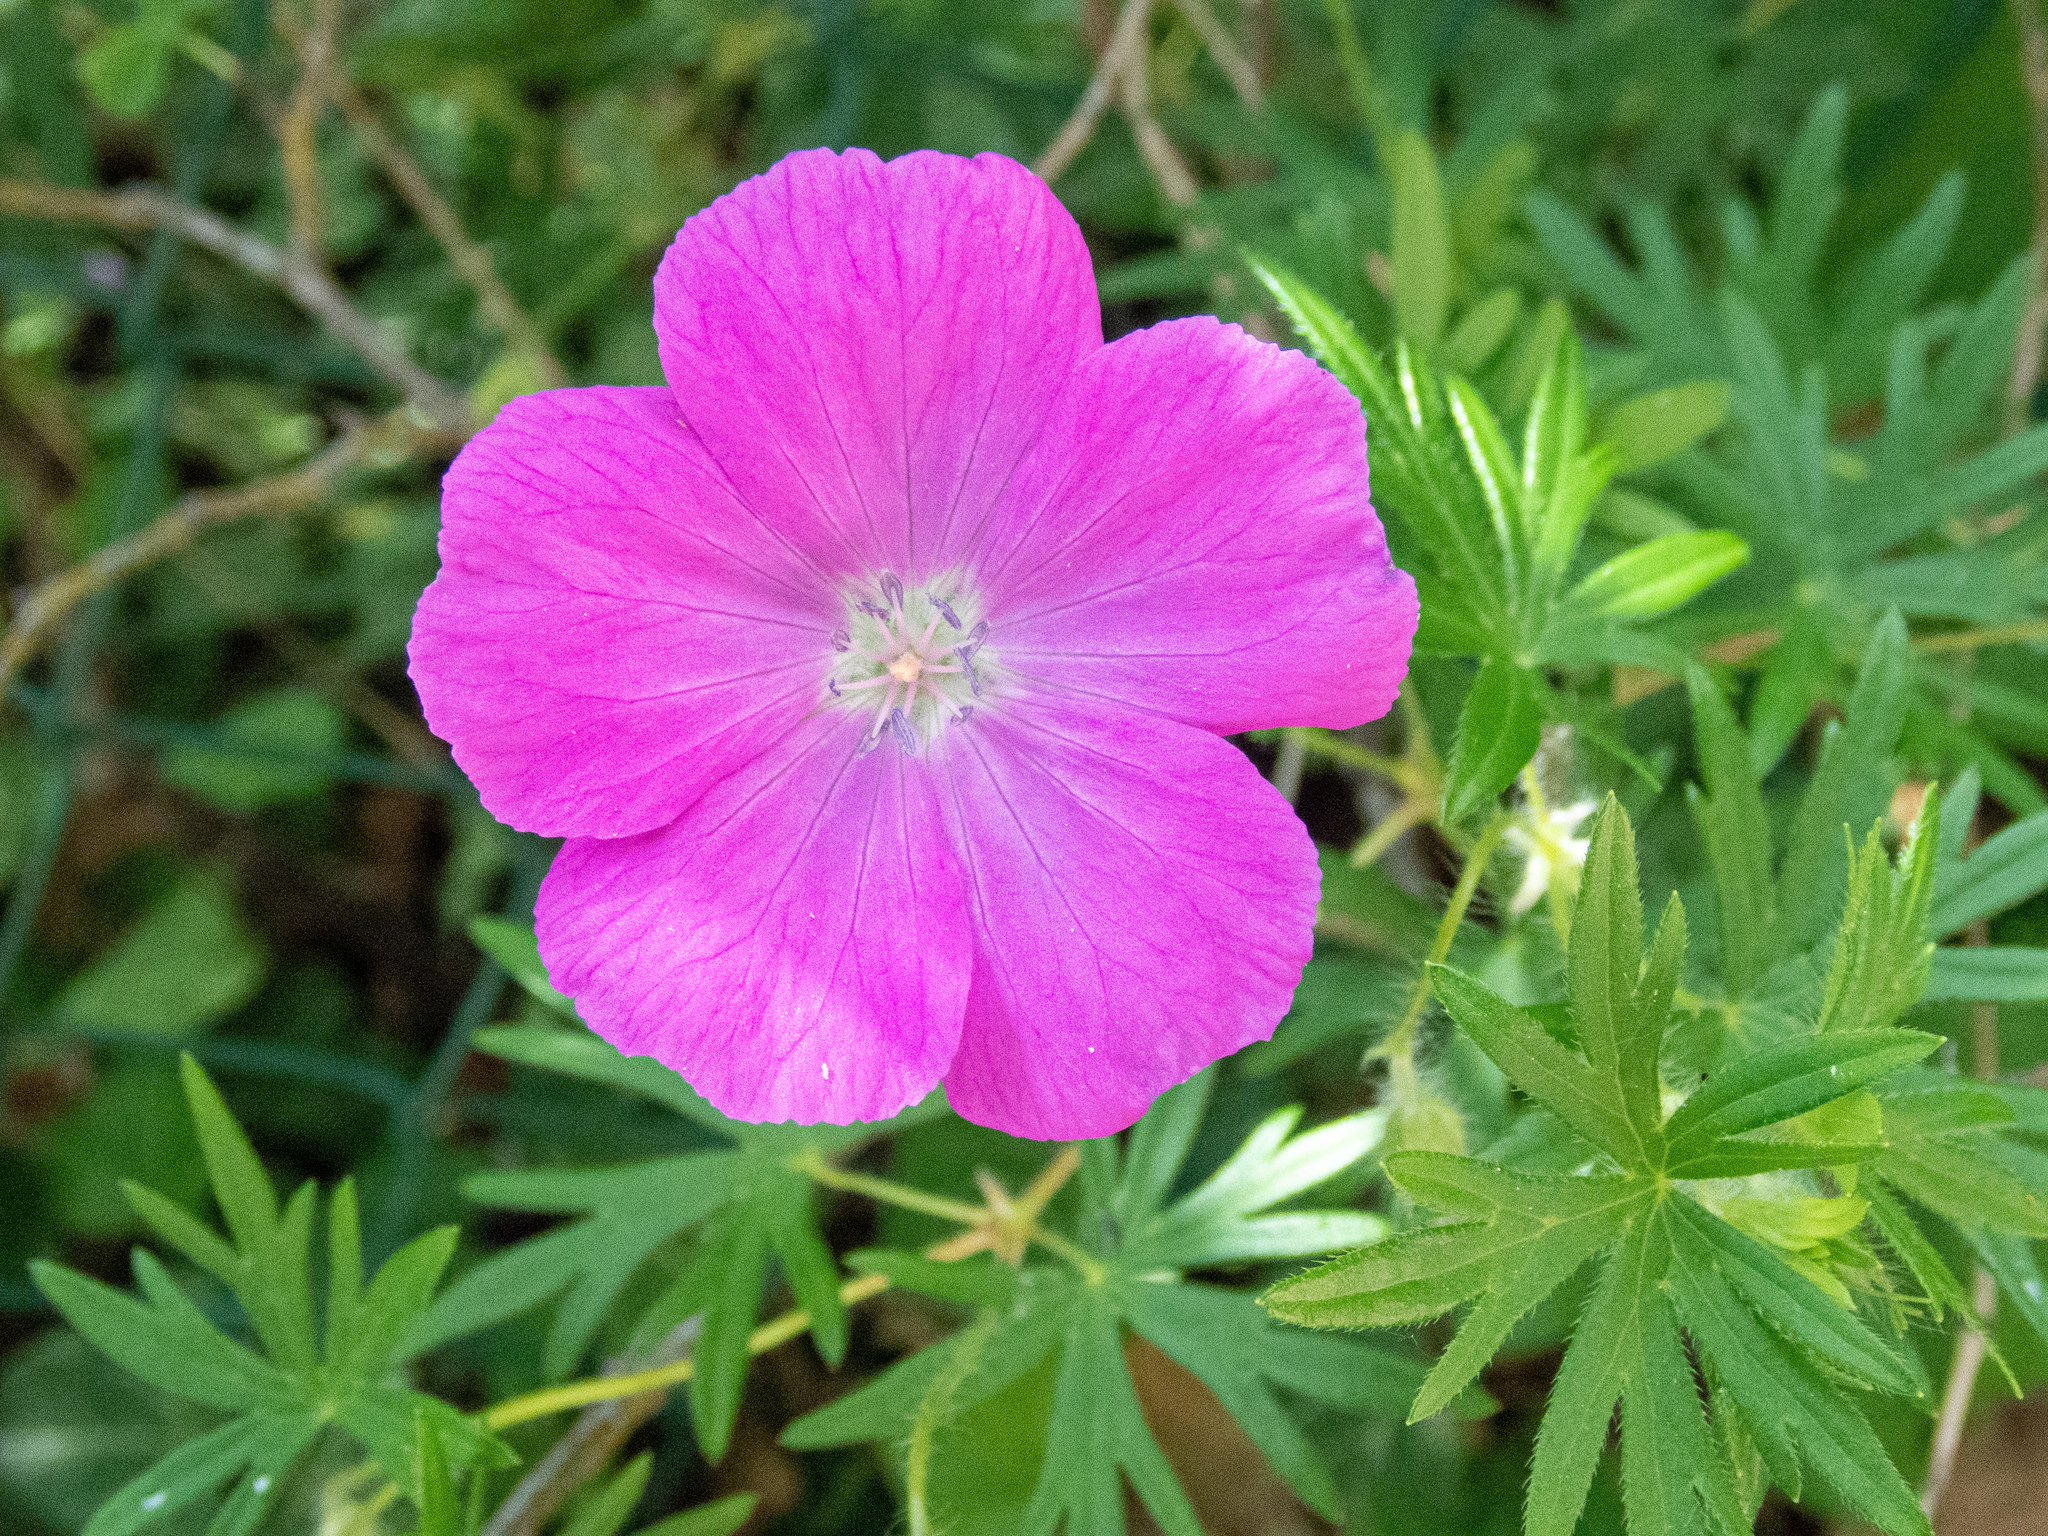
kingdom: Plantae
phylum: Tracheophyta
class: Magnoliopsida
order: Geraniales
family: Geraniaceae
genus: Geranium
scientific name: Geranium sanguineum
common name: Bloody crane's-bill
